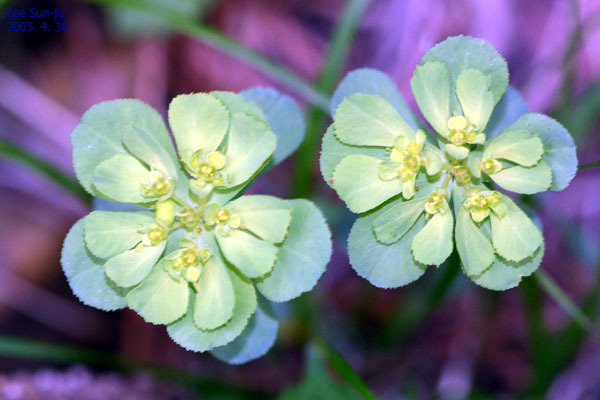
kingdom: Plantae
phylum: Tracheophyta
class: Magnoliopsida
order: Malpighiales
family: Euphorbiaceae
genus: Euphorbia
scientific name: Euphorbia helioscopia
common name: Sun spurge
